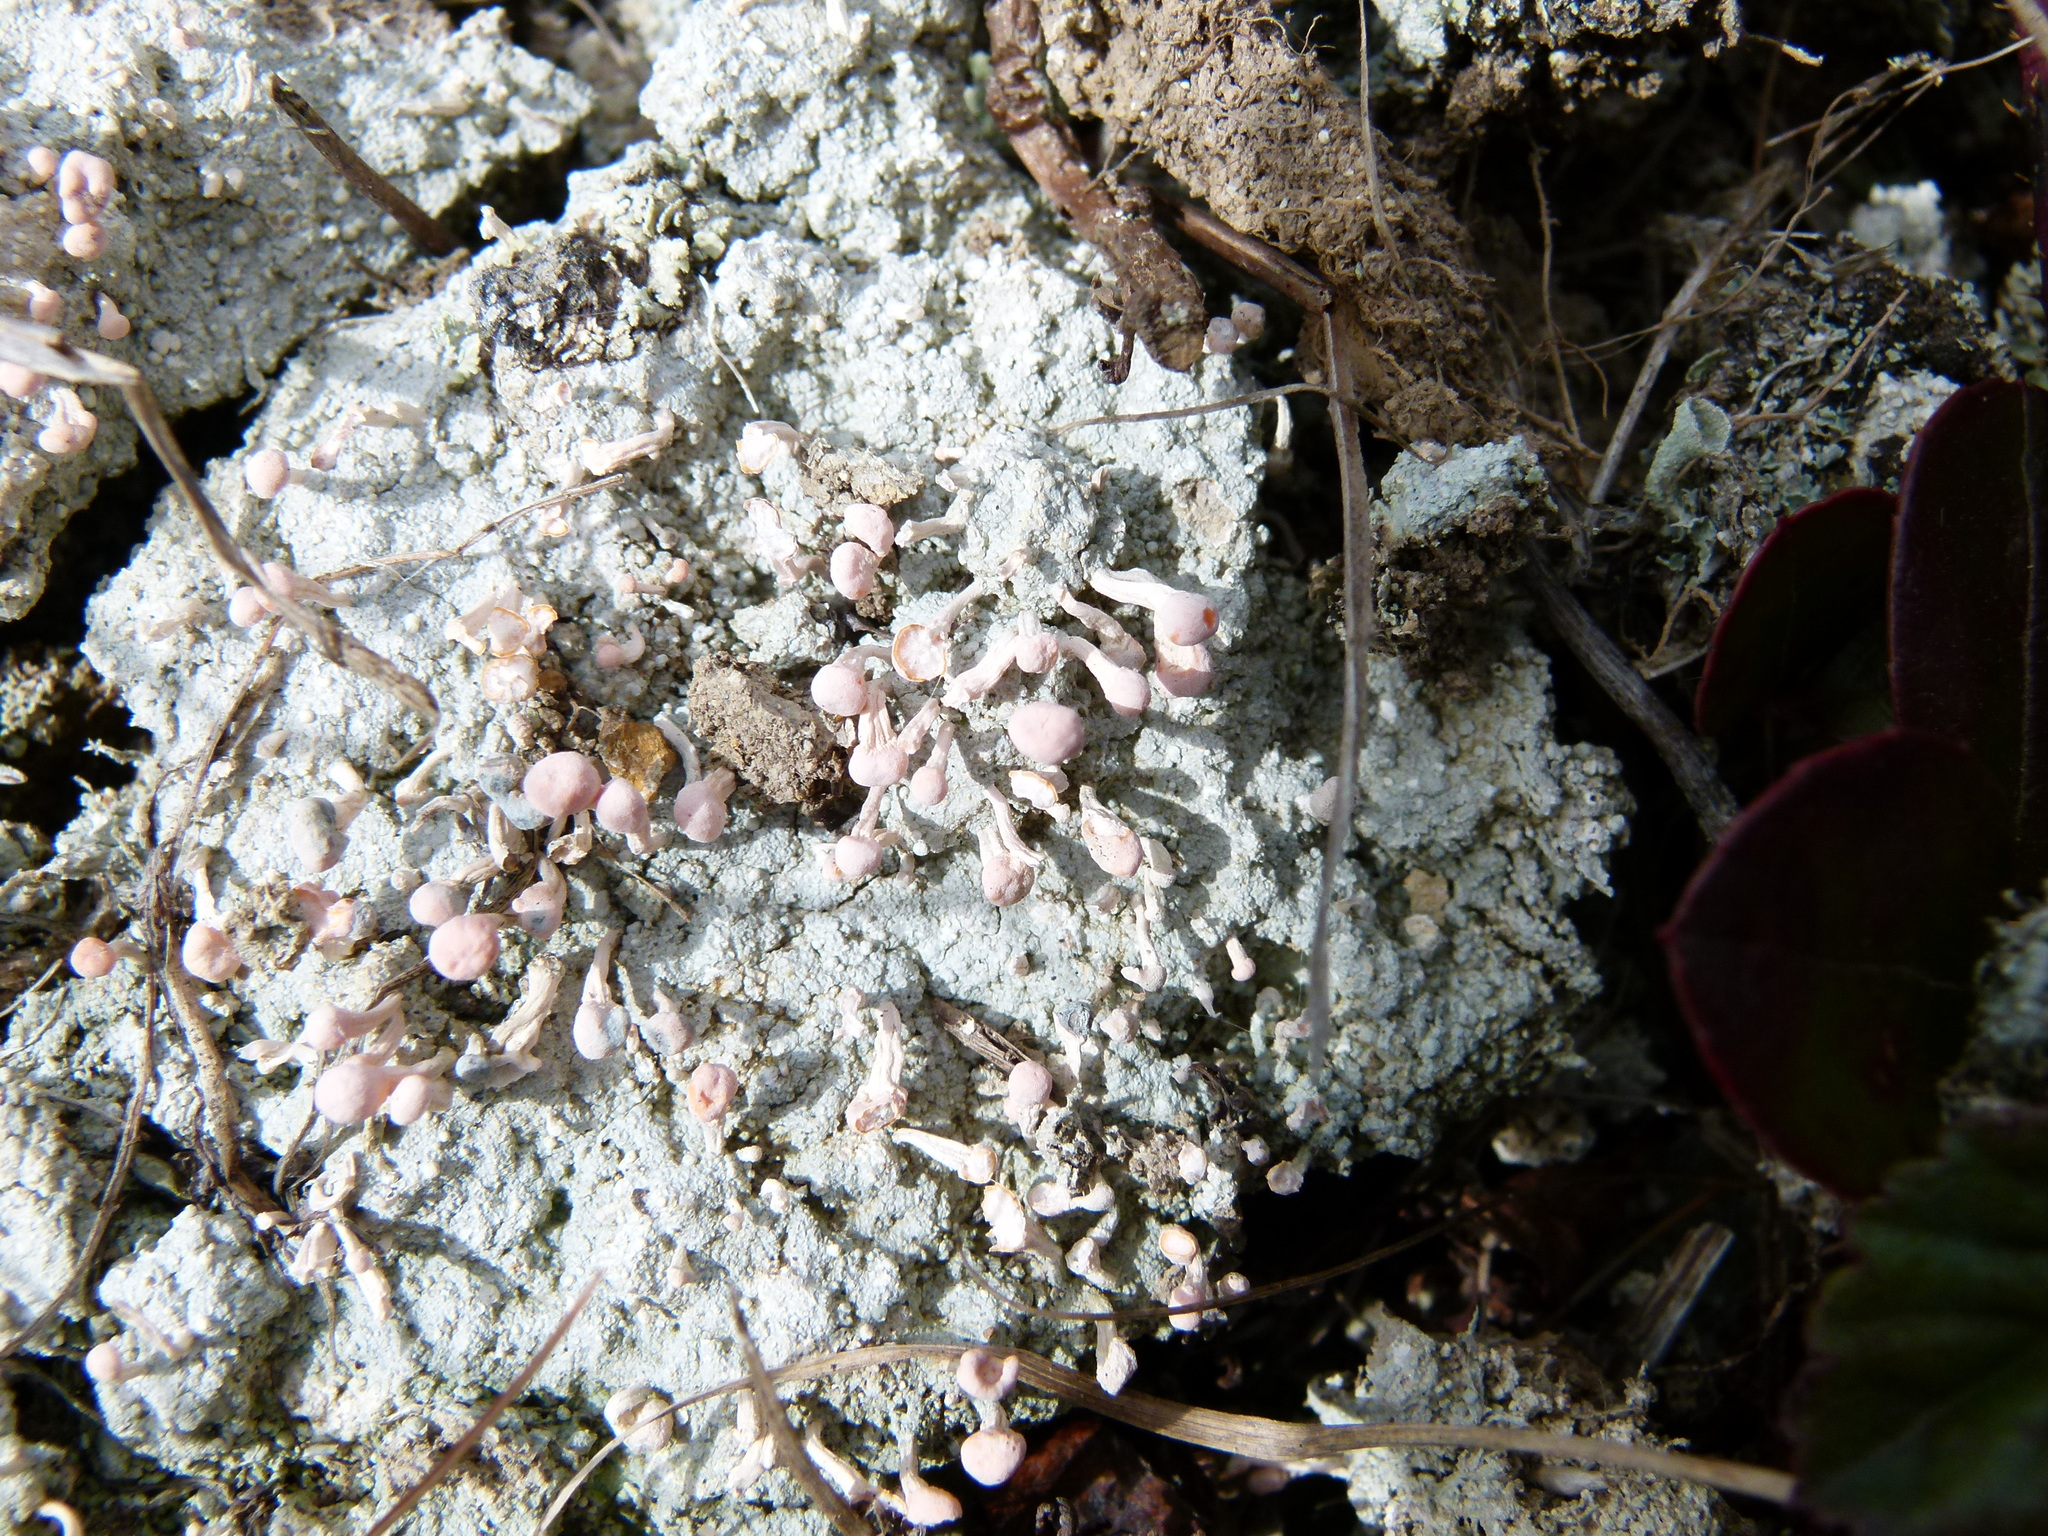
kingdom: Fungi
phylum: Ascomycota
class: Lecanoromycetes
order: Pertusariales
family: Icmadophilaceae
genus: Dibaeis
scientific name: Dibaeis baeomyces
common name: Pink earth lichen
